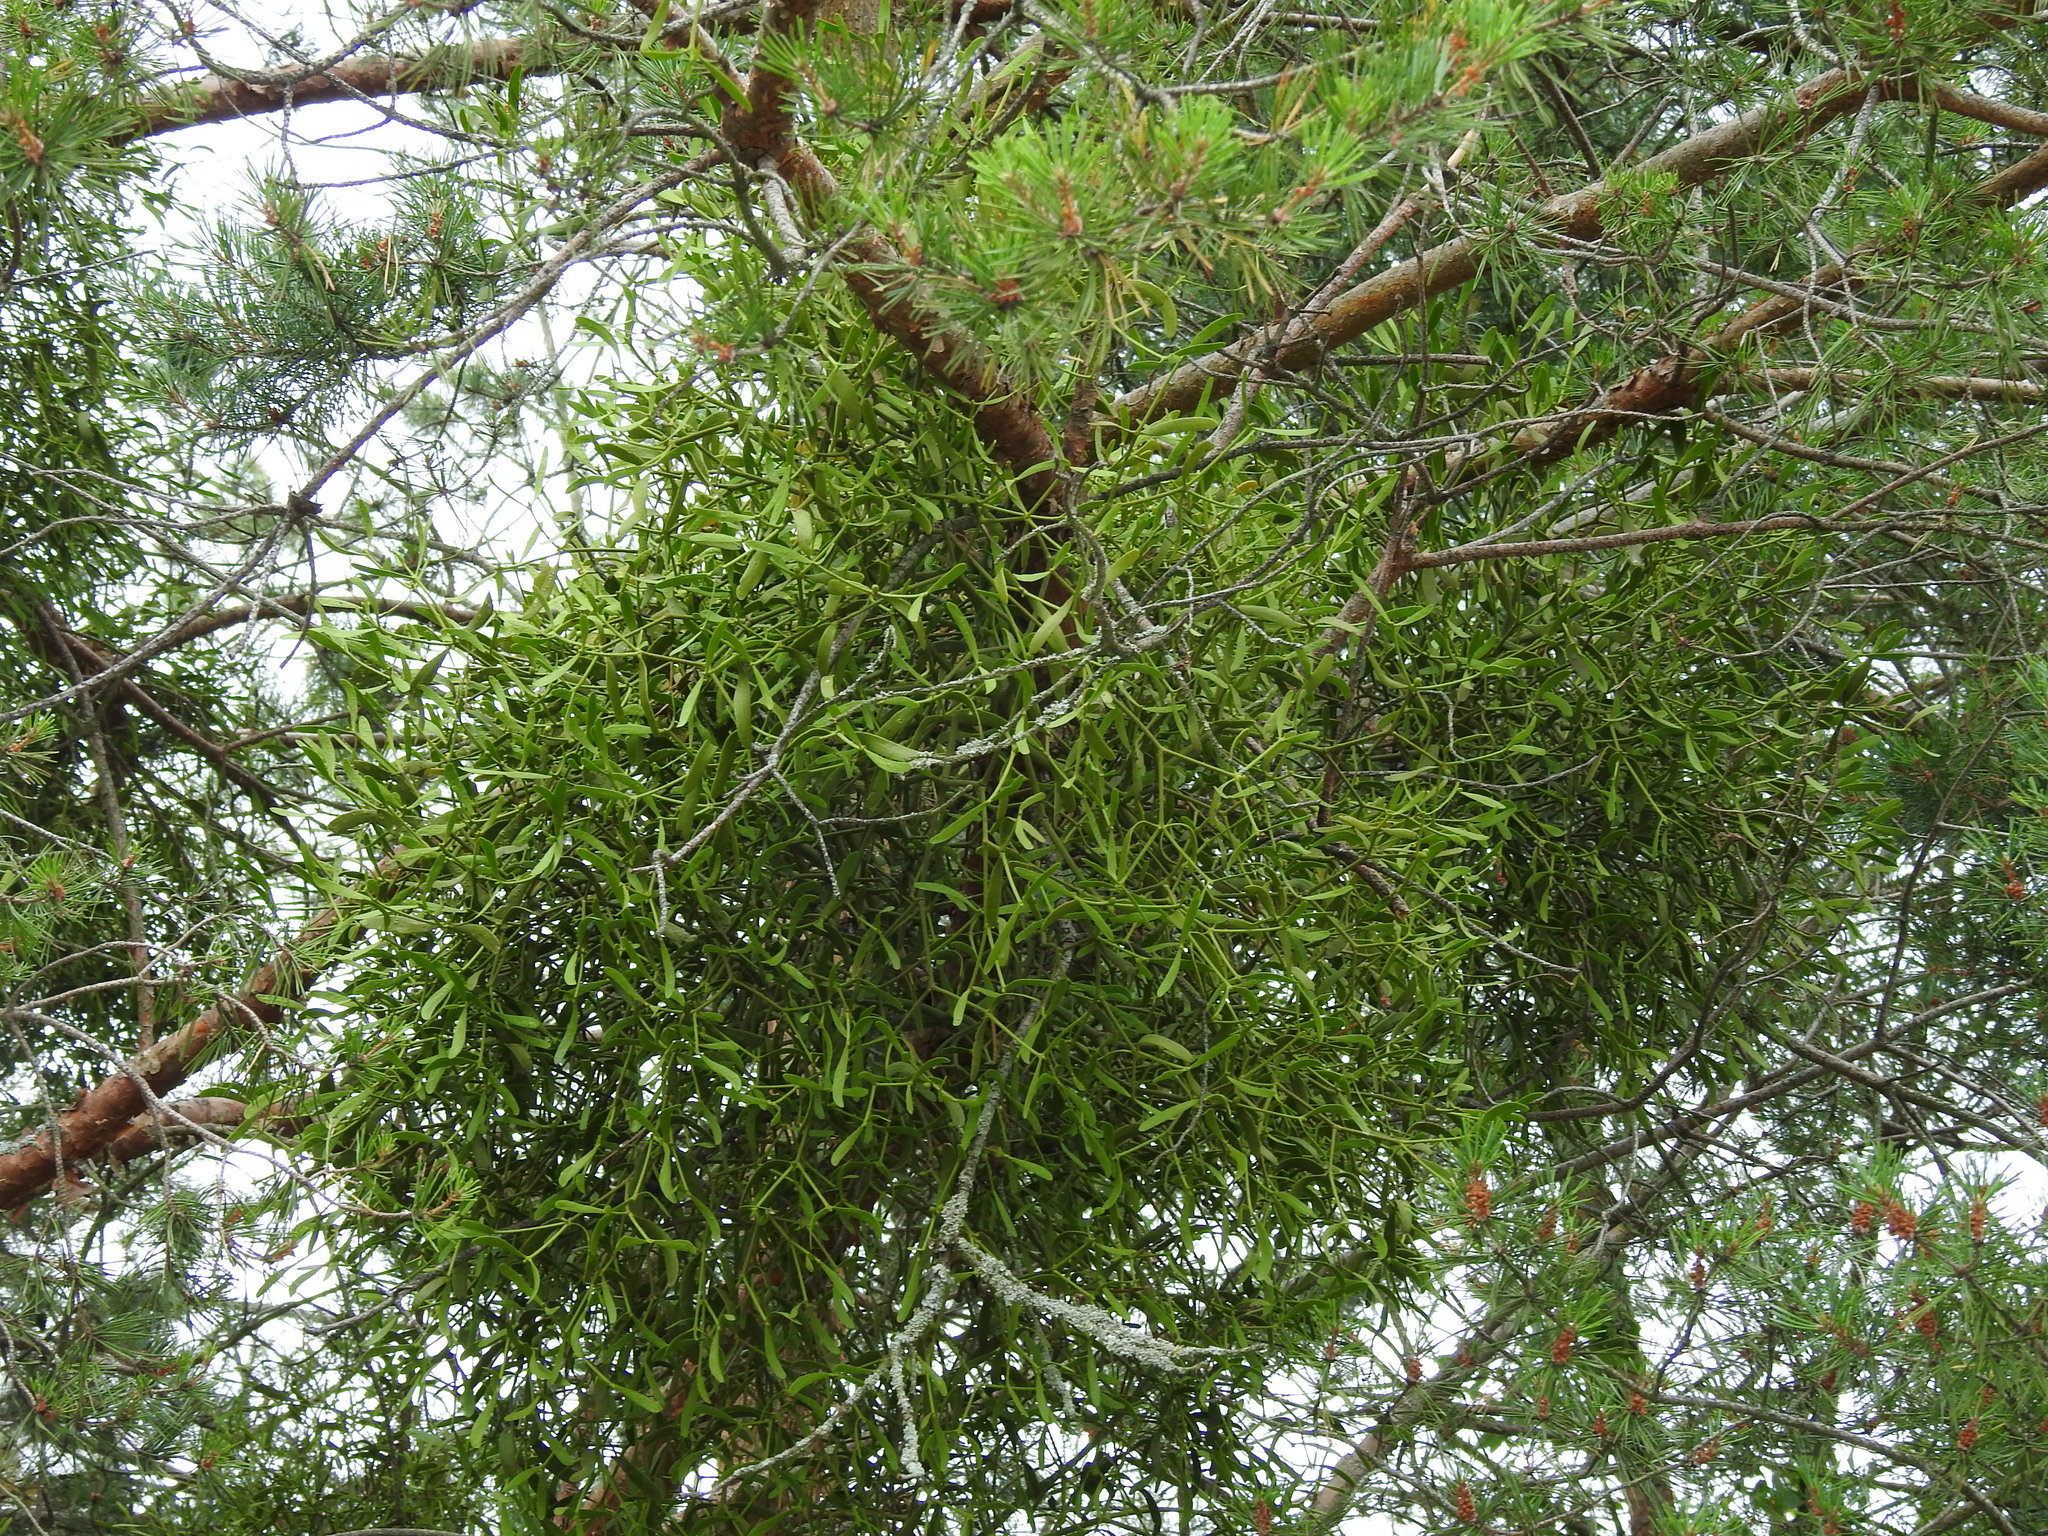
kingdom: Plantae
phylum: Tracheophyta
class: Magnoliopsida
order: Santalales
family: Viscaceae
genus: Viscum
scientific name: Viscum album
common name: Mistletoe
